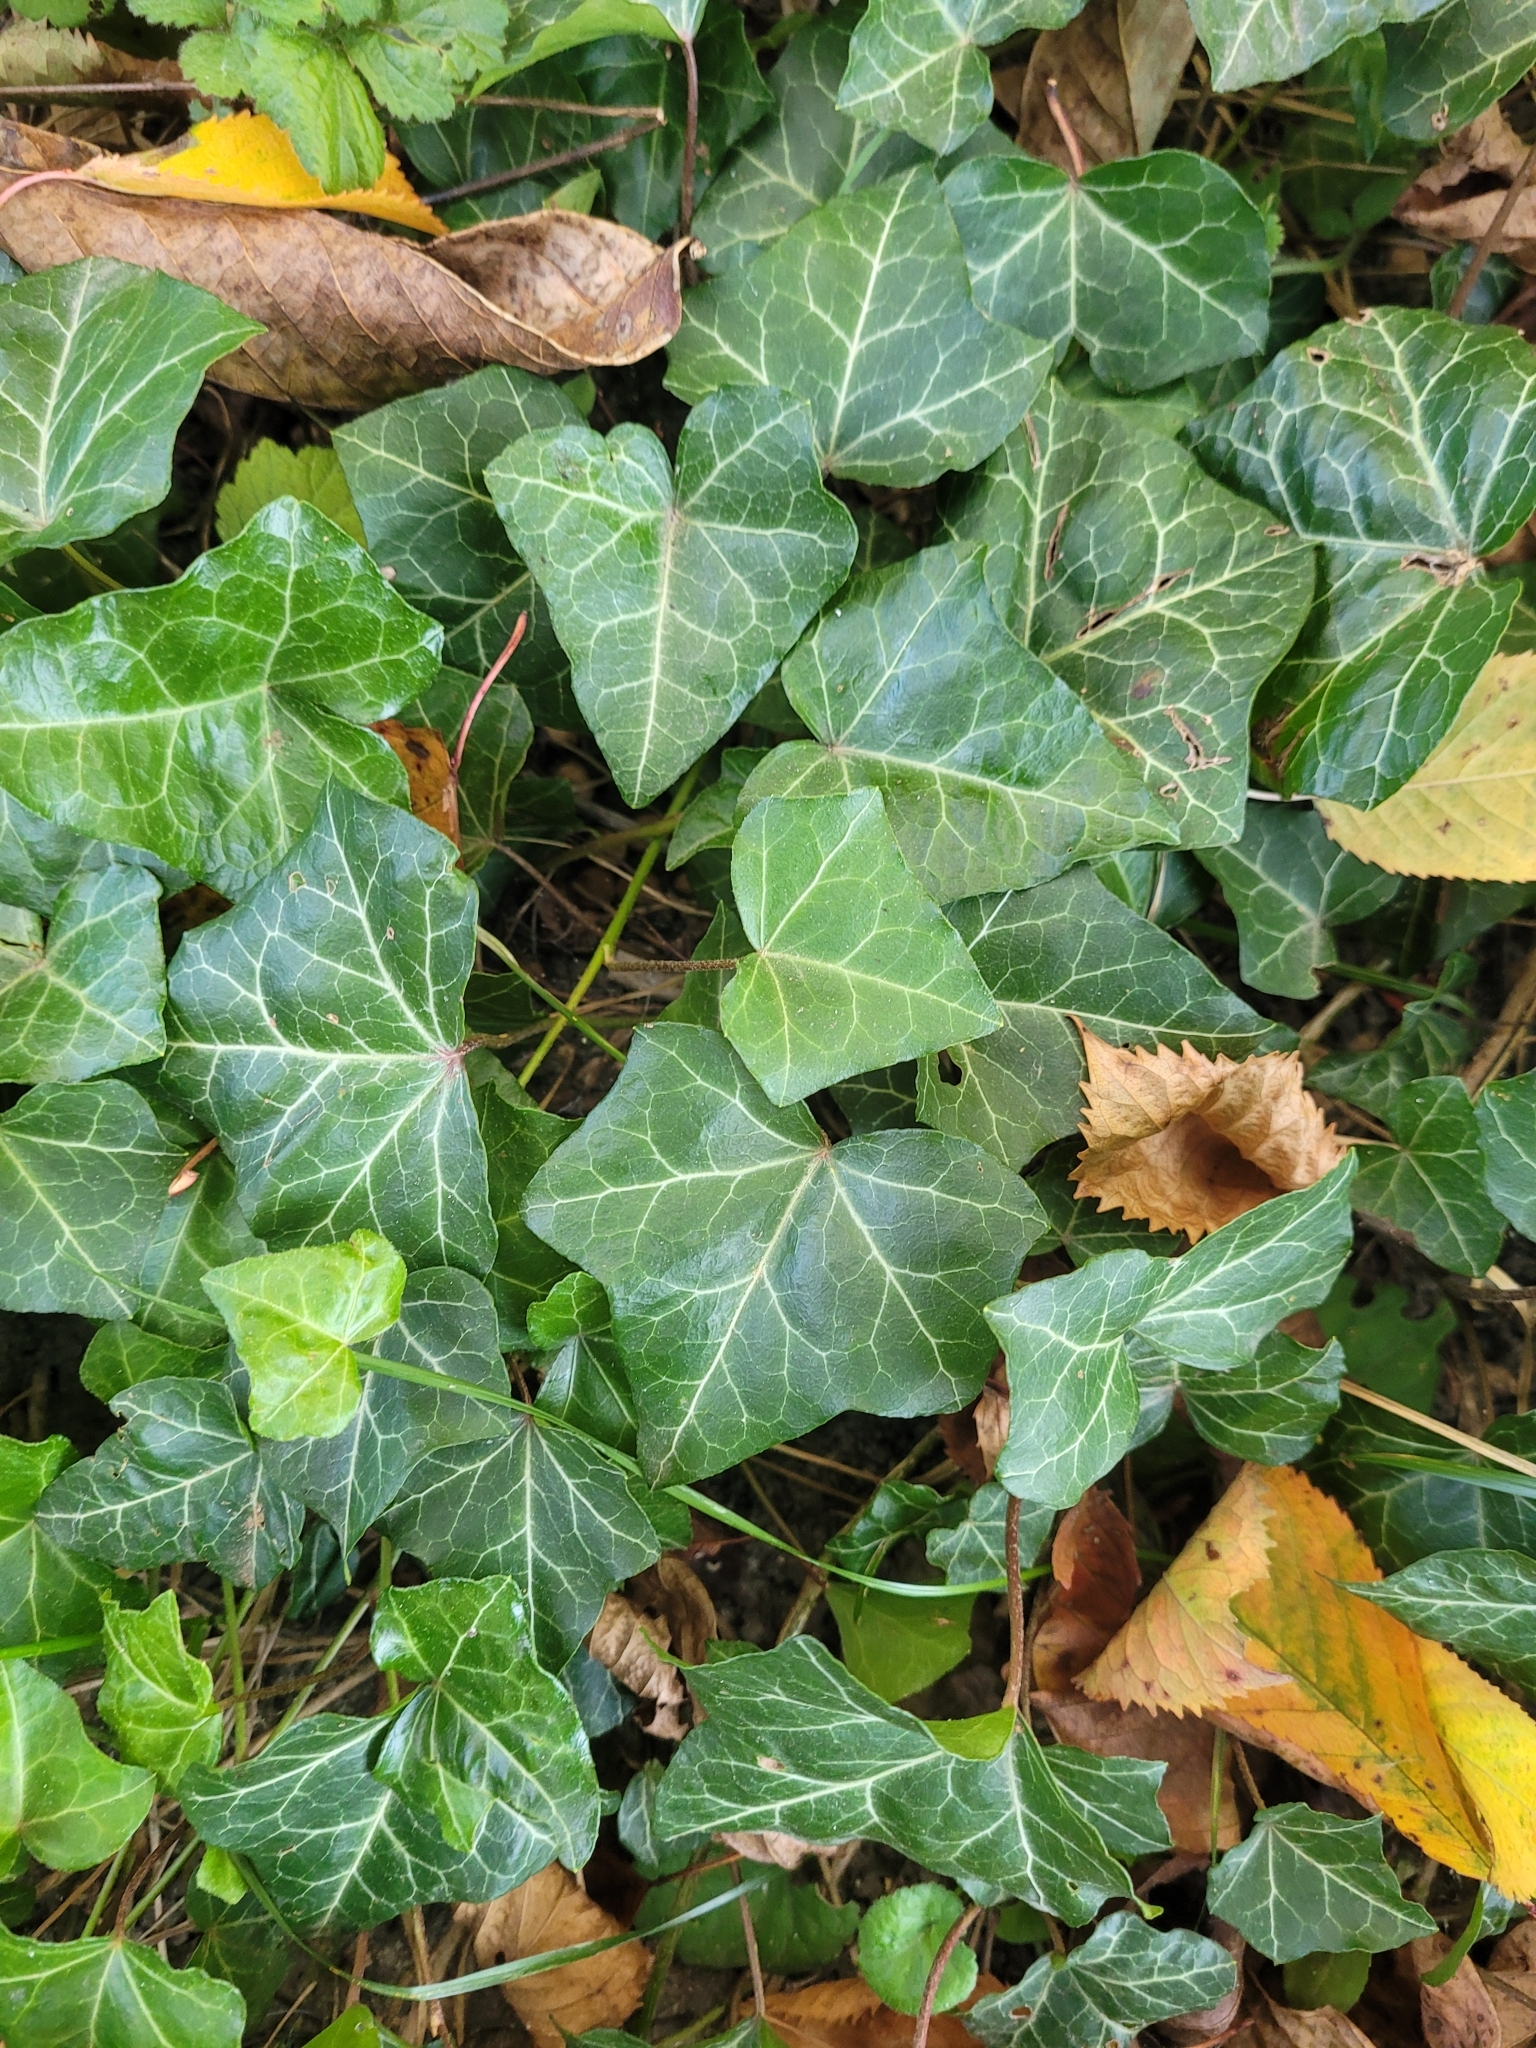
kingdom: Plantae
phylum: Tracheophyta
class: Magnoliopsida
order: Apiales
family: Araliaceae
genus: Hedera
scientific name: Hedera helix
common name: Ivy
